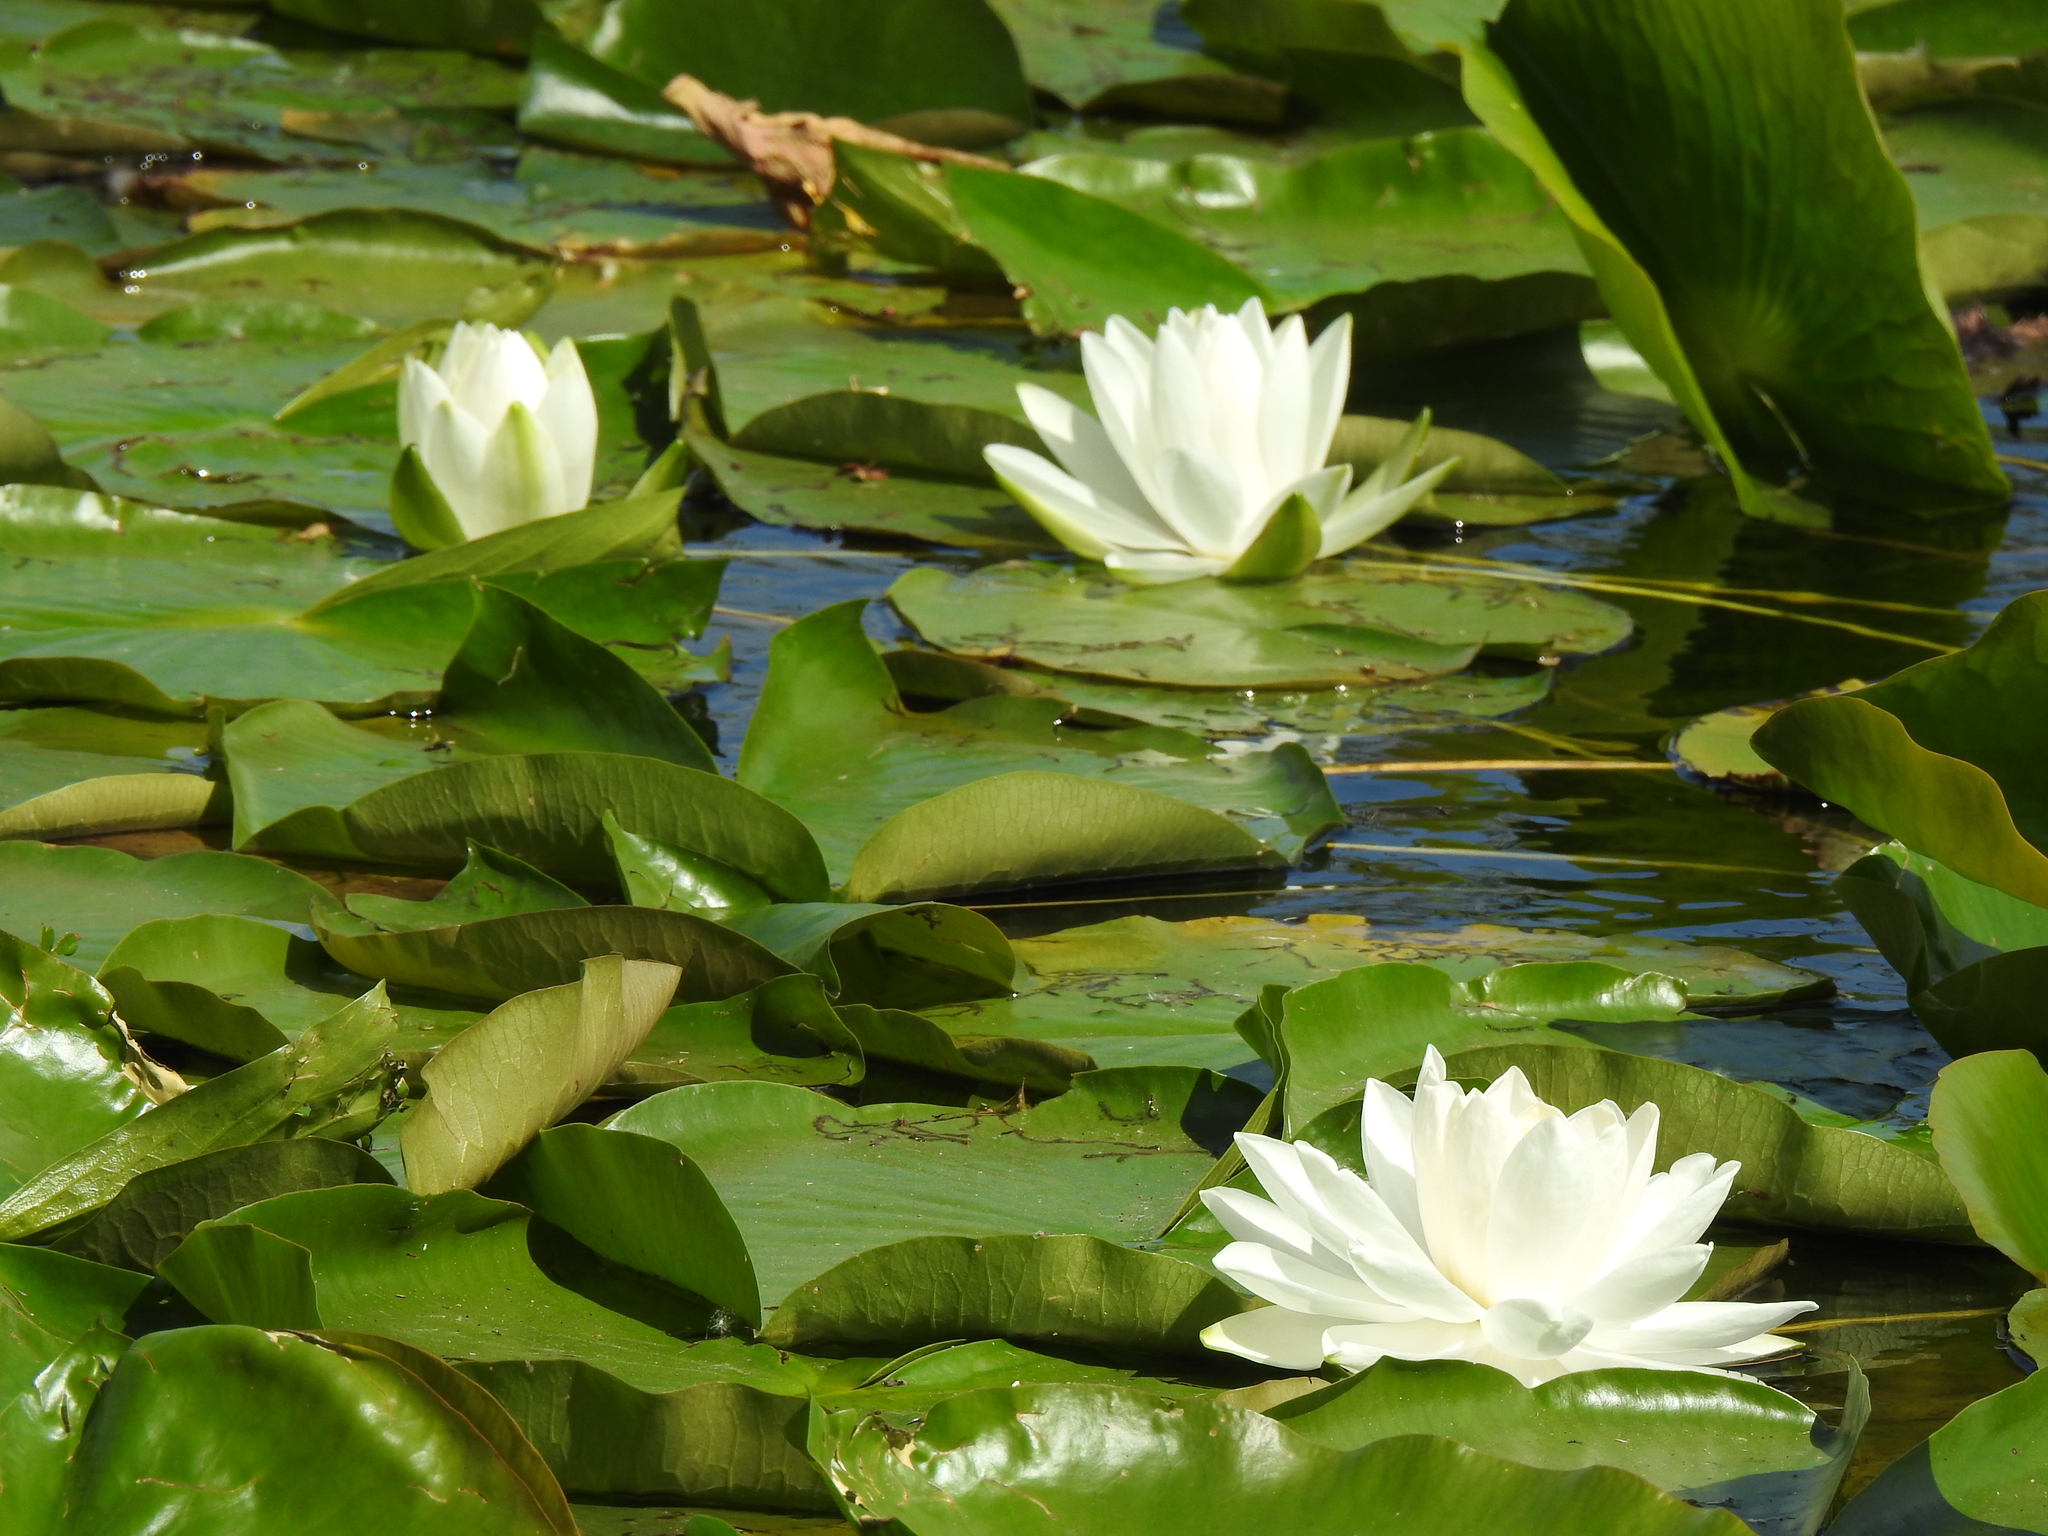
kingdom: Plantae
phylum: Tracheophyta
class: Magnoliopsida
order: Nymphaeales
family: Nymphaeaceae
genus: Nymphaea
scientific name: Nymphaea odorata
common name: Fragrant water-lily
